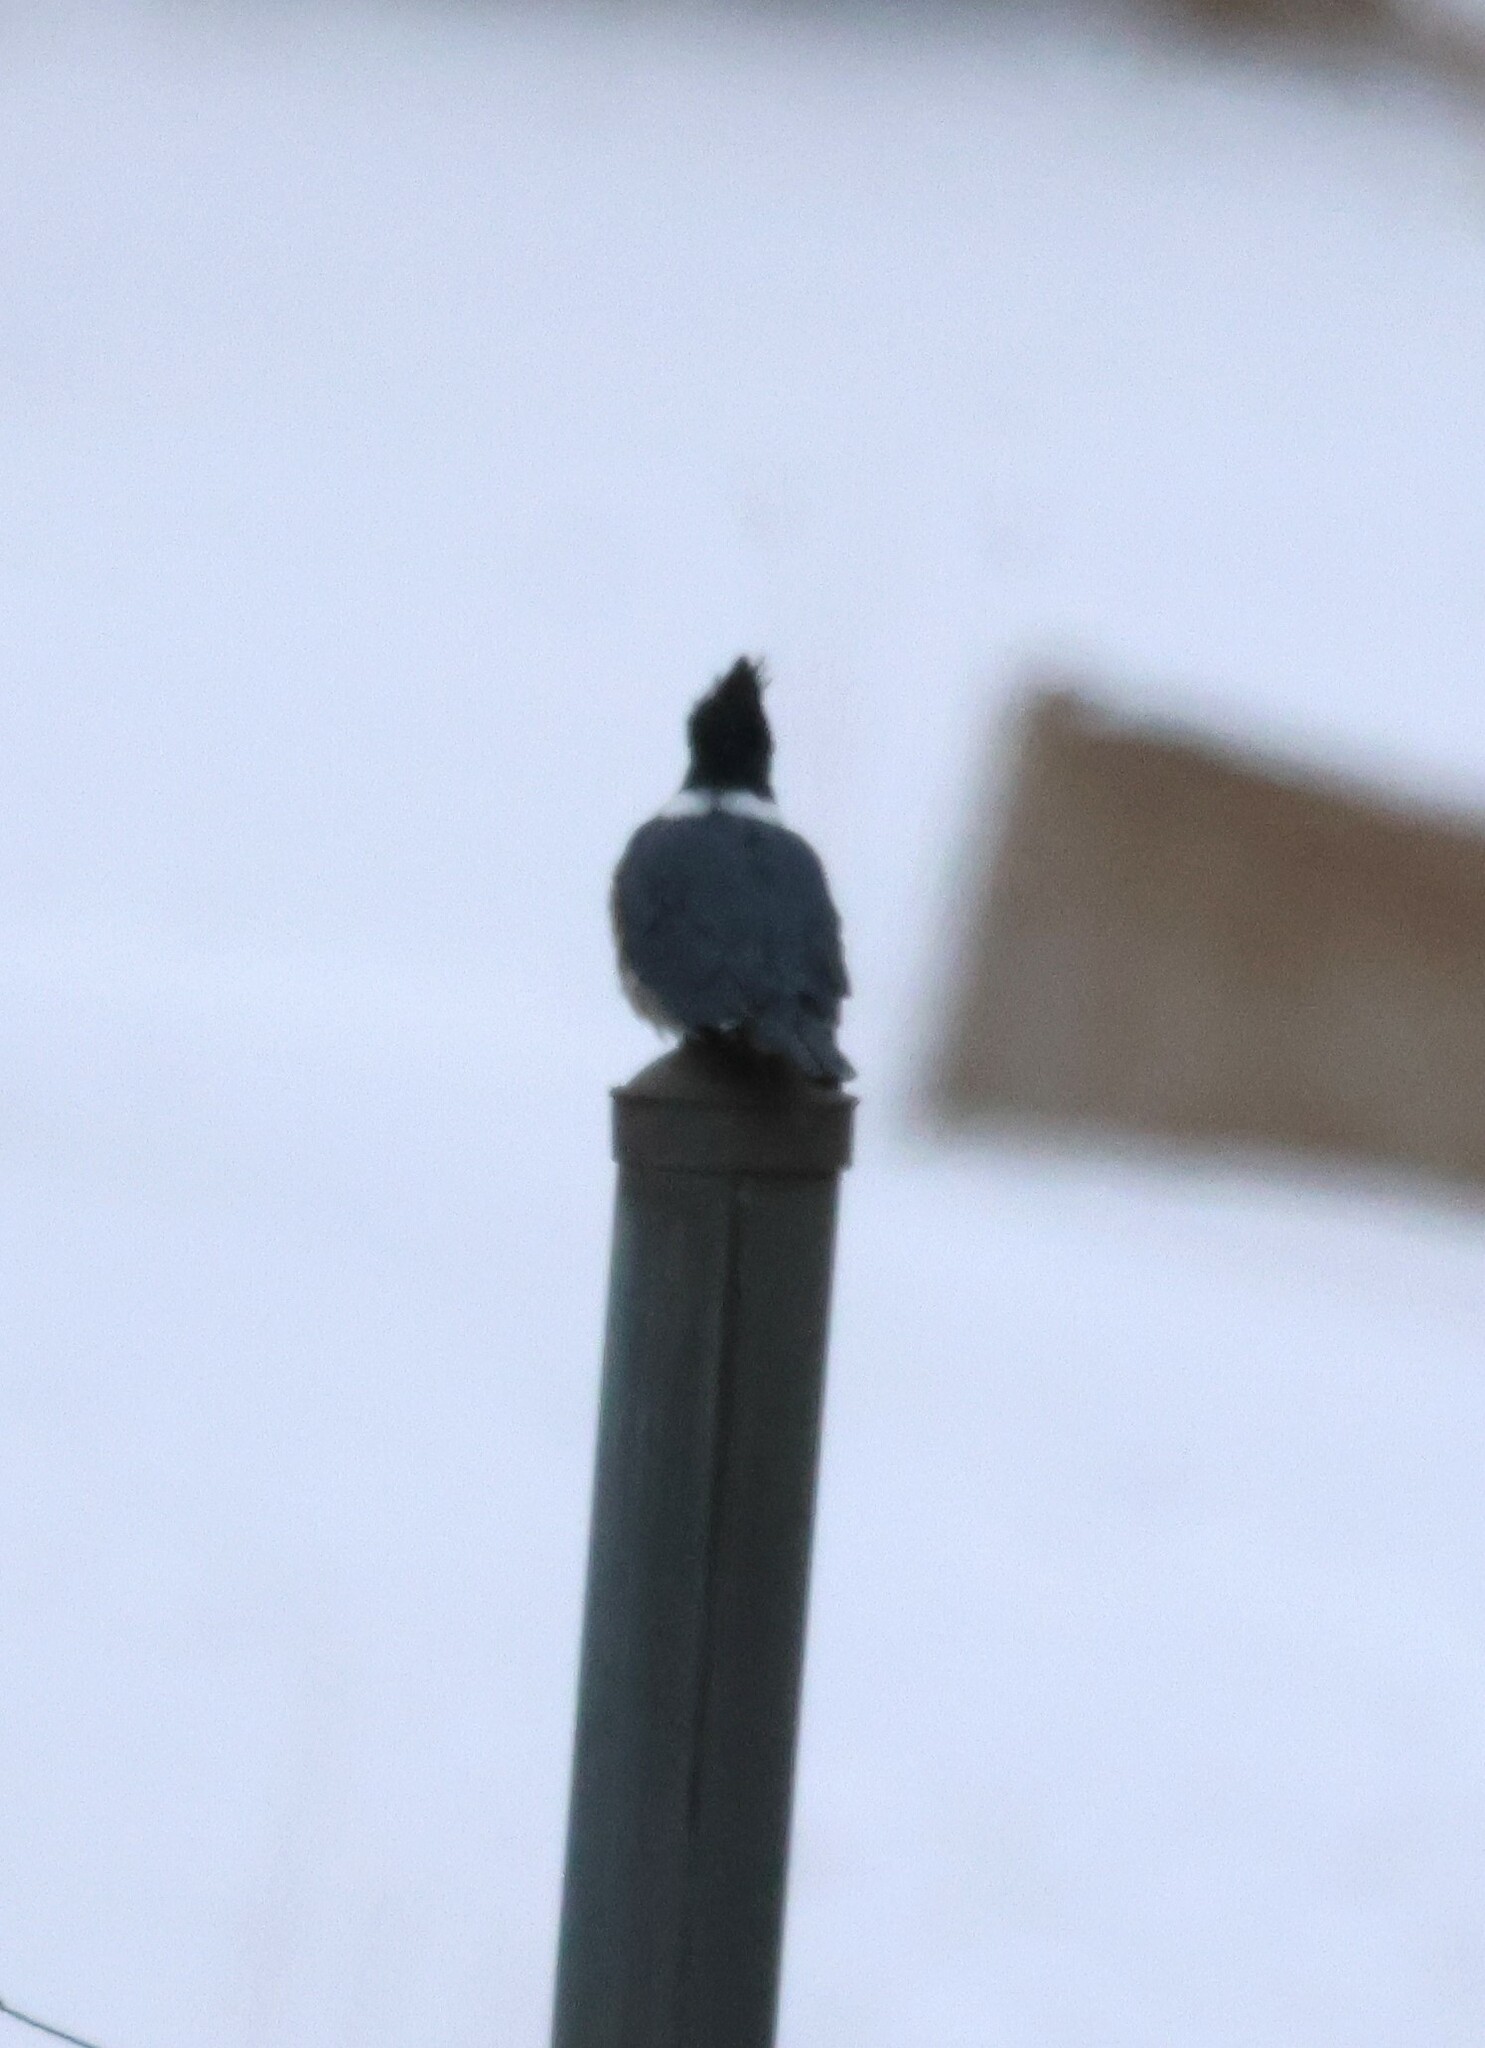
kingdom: Animalia
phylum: Chordata
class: Aves
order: Coraciiformes
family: Alcedinidae
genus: Megaceryle
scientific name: Megaceryle alcyon
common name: Belted kingfisher
